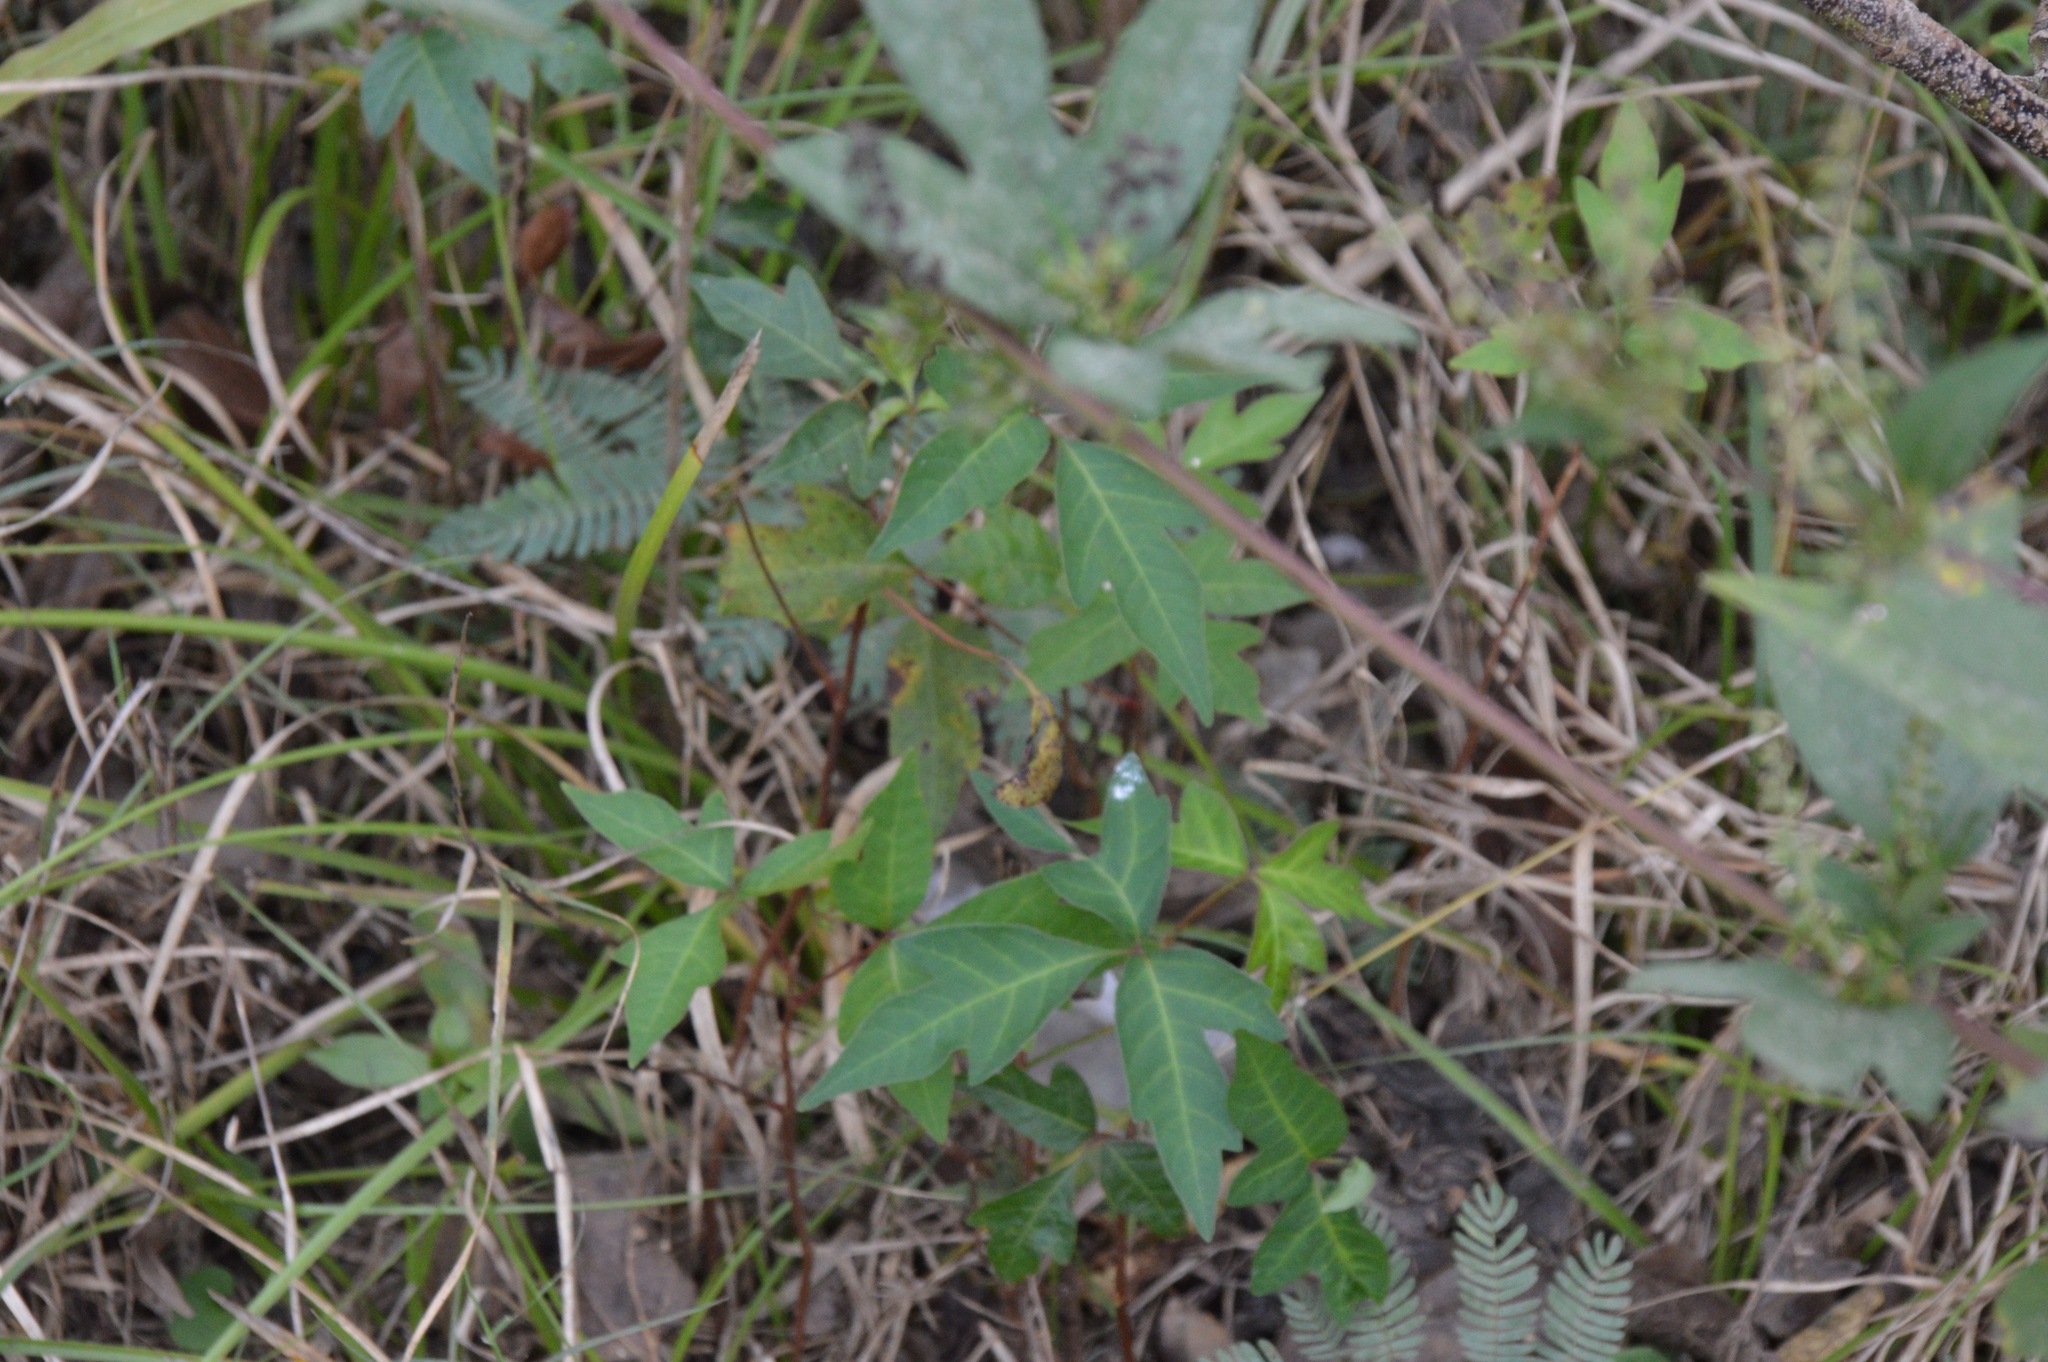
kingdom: Plantae
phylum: Tracheophyta
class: Magnoliopsida
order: Sapindales
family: Anacardiaceae
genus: Toxicodendron
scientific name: Toxicodendron radicans
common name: Poison ivy
